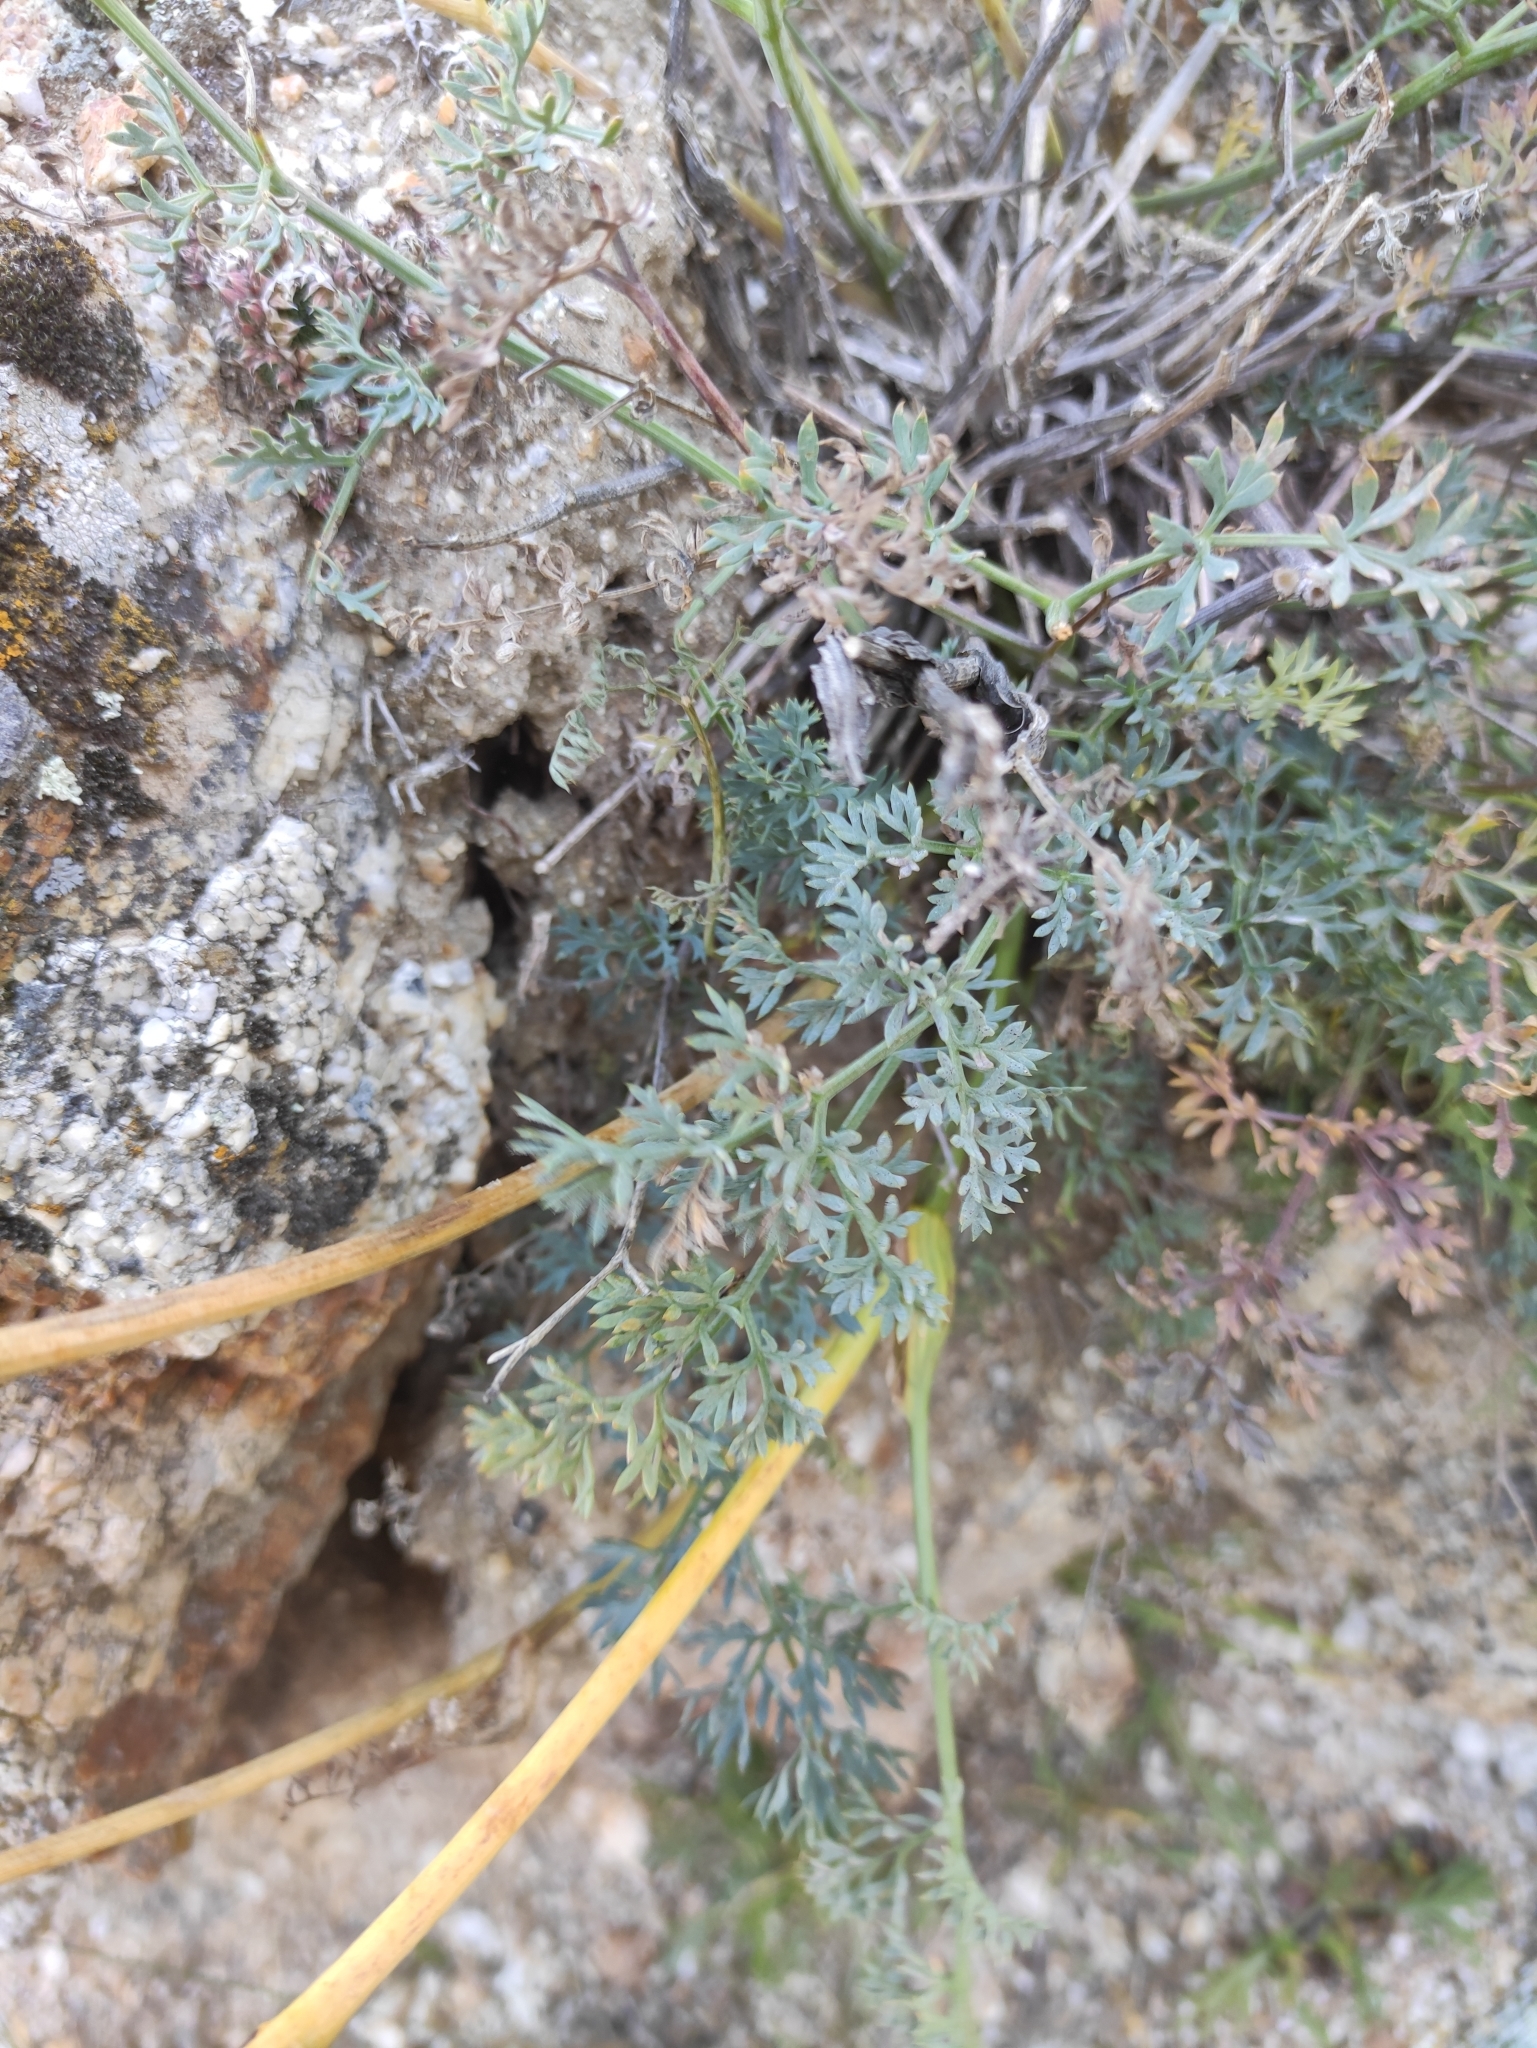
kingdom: Plantae
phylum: Tracheophyta
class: Magnoliopsida
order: Apiales
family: Apiaceae
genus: Phlojodicarpus
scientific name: Phlojodicarpus sibiricus
